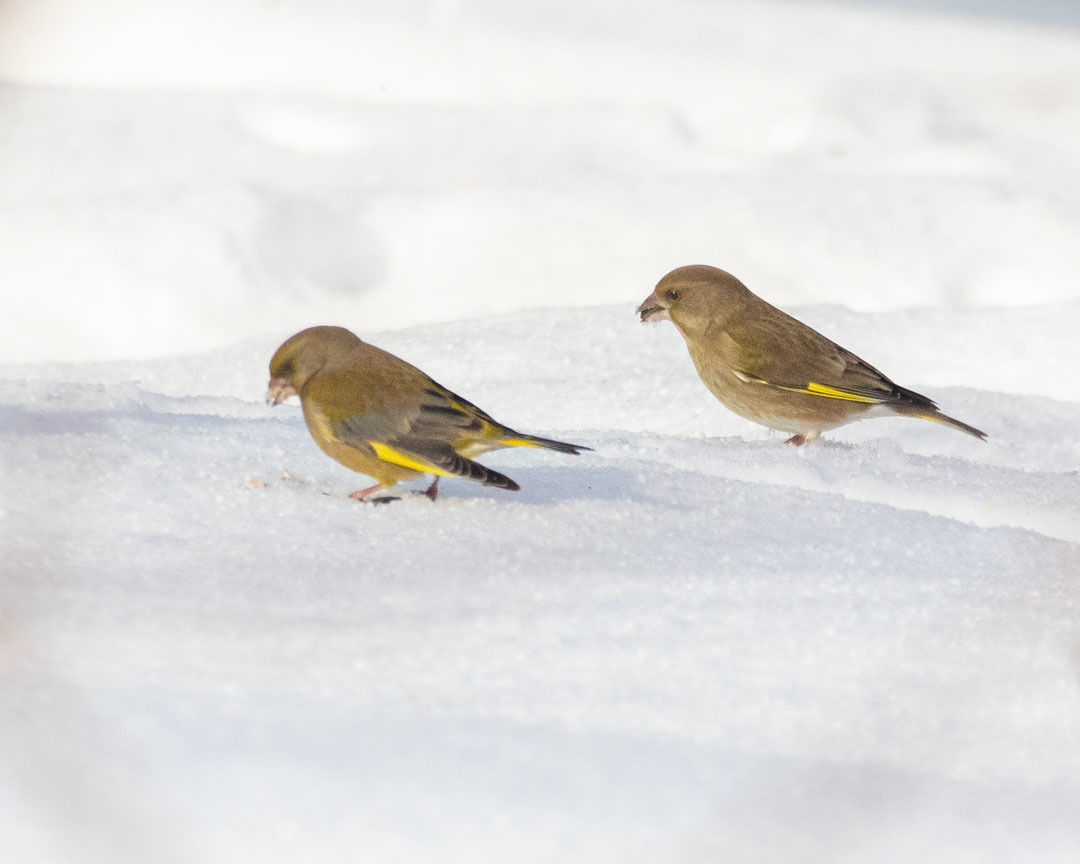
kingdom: Plantae
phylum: Tracheophyta
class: Liliopsida
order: Poales
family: Poaceae
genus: Chloris
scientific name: Chloris chloris
